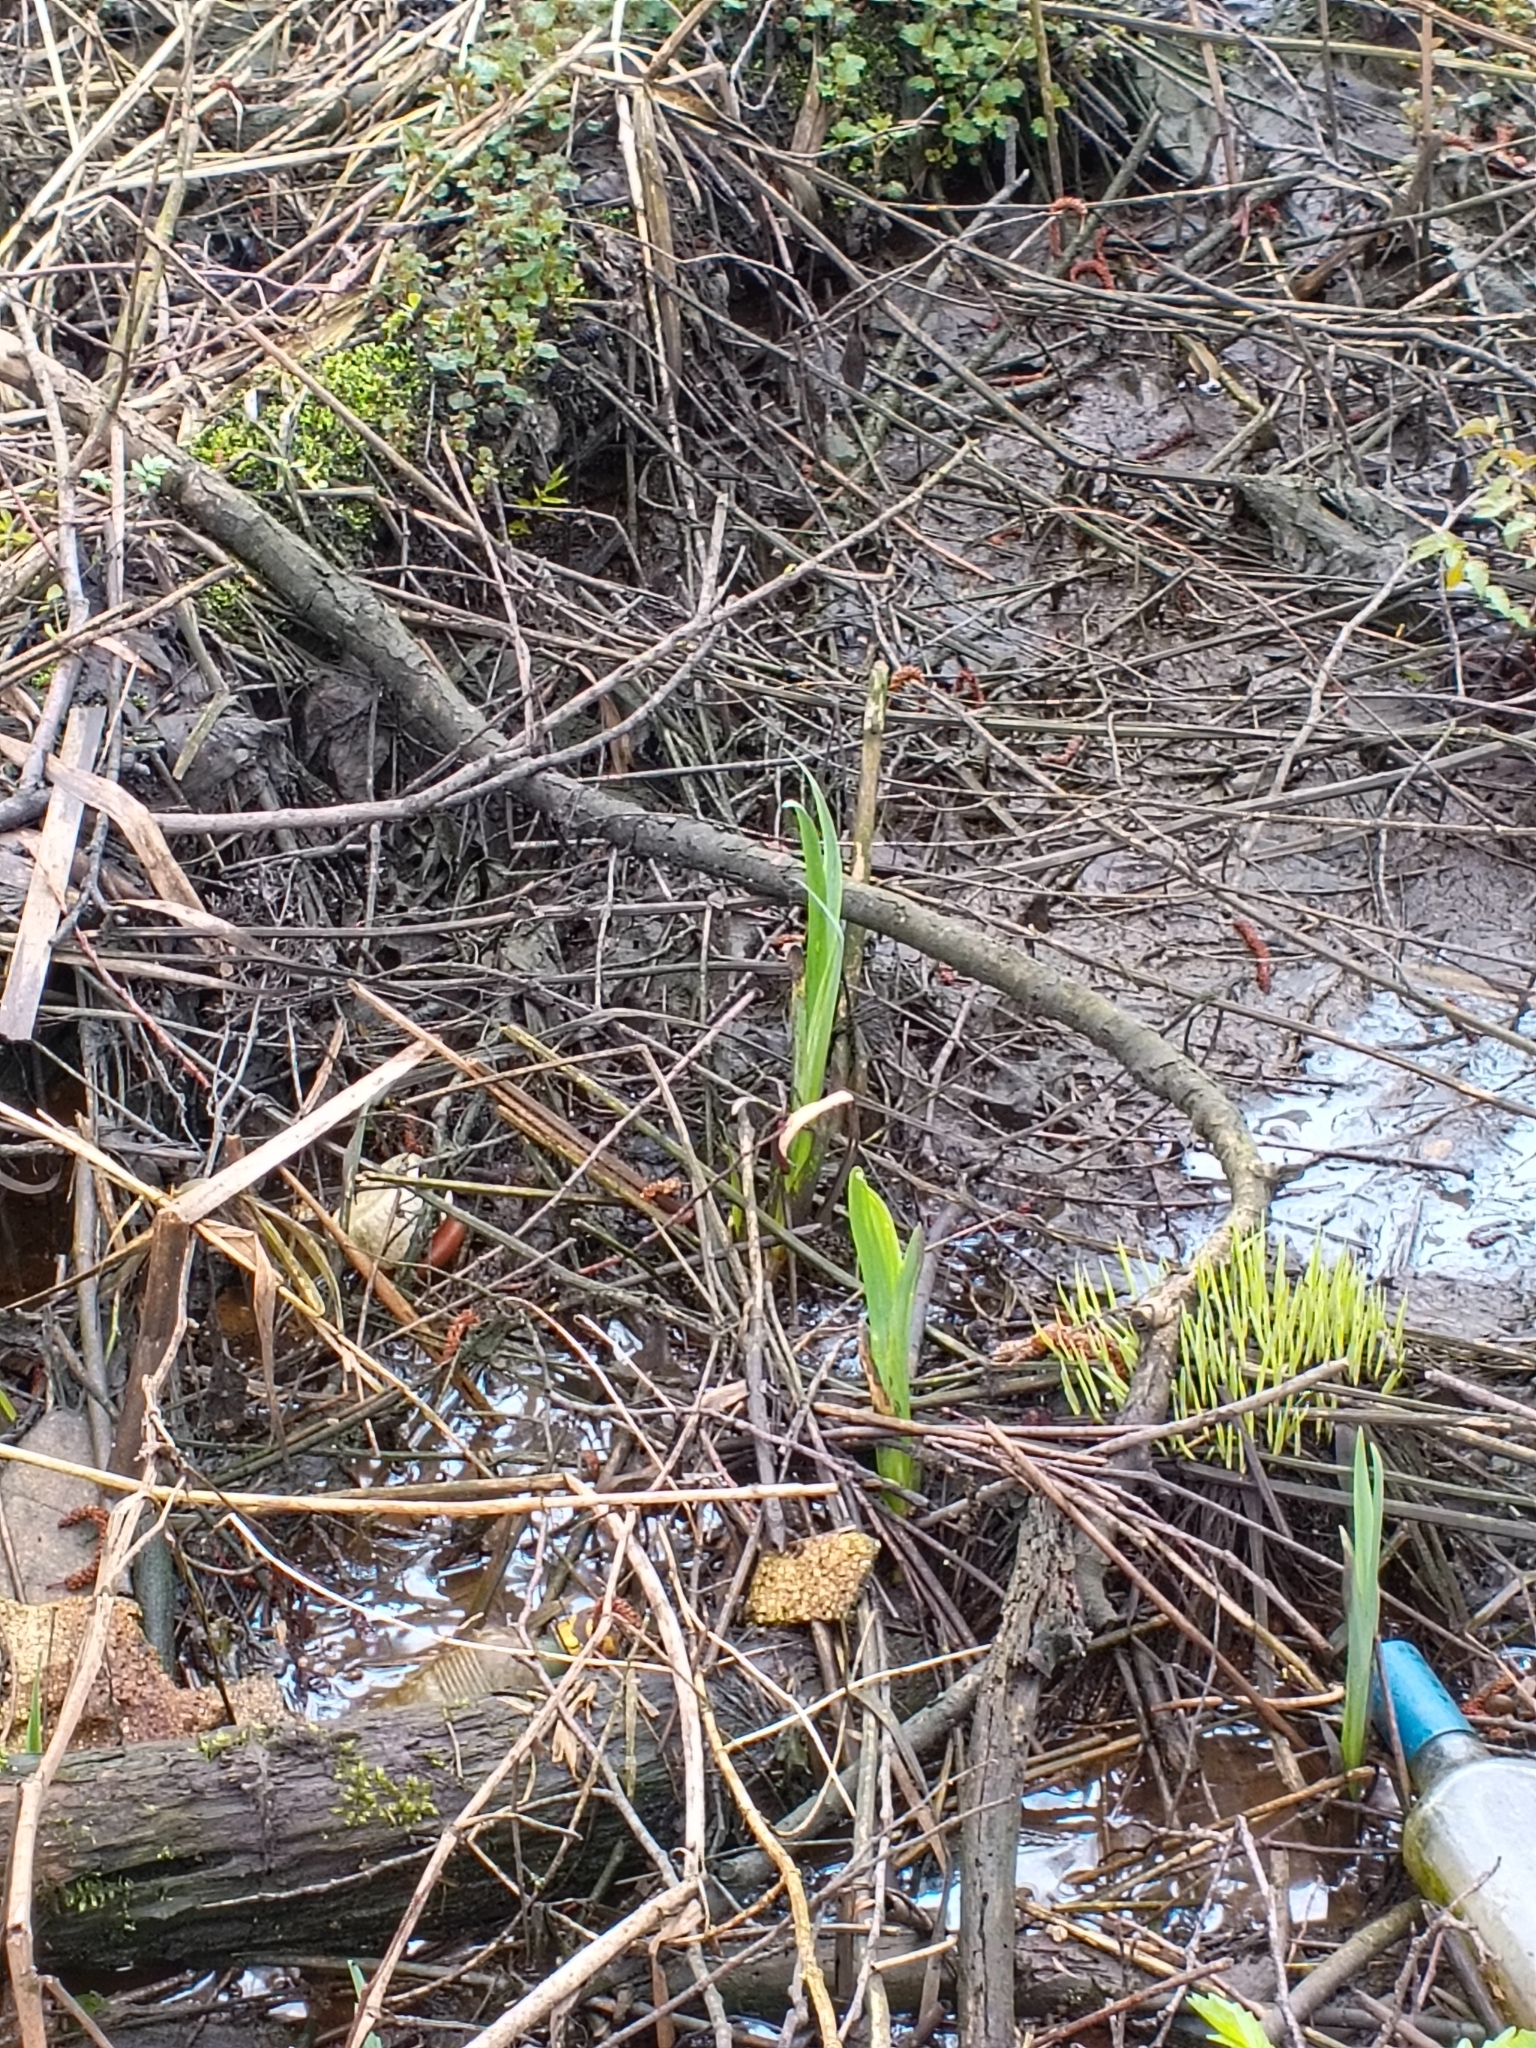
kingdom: Plantae
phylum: Tracheophyta
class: Liliopsida
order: Asparagales
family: Iridaceae
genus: Iris
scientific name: Iris pseudacorus
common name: Yellow flag
